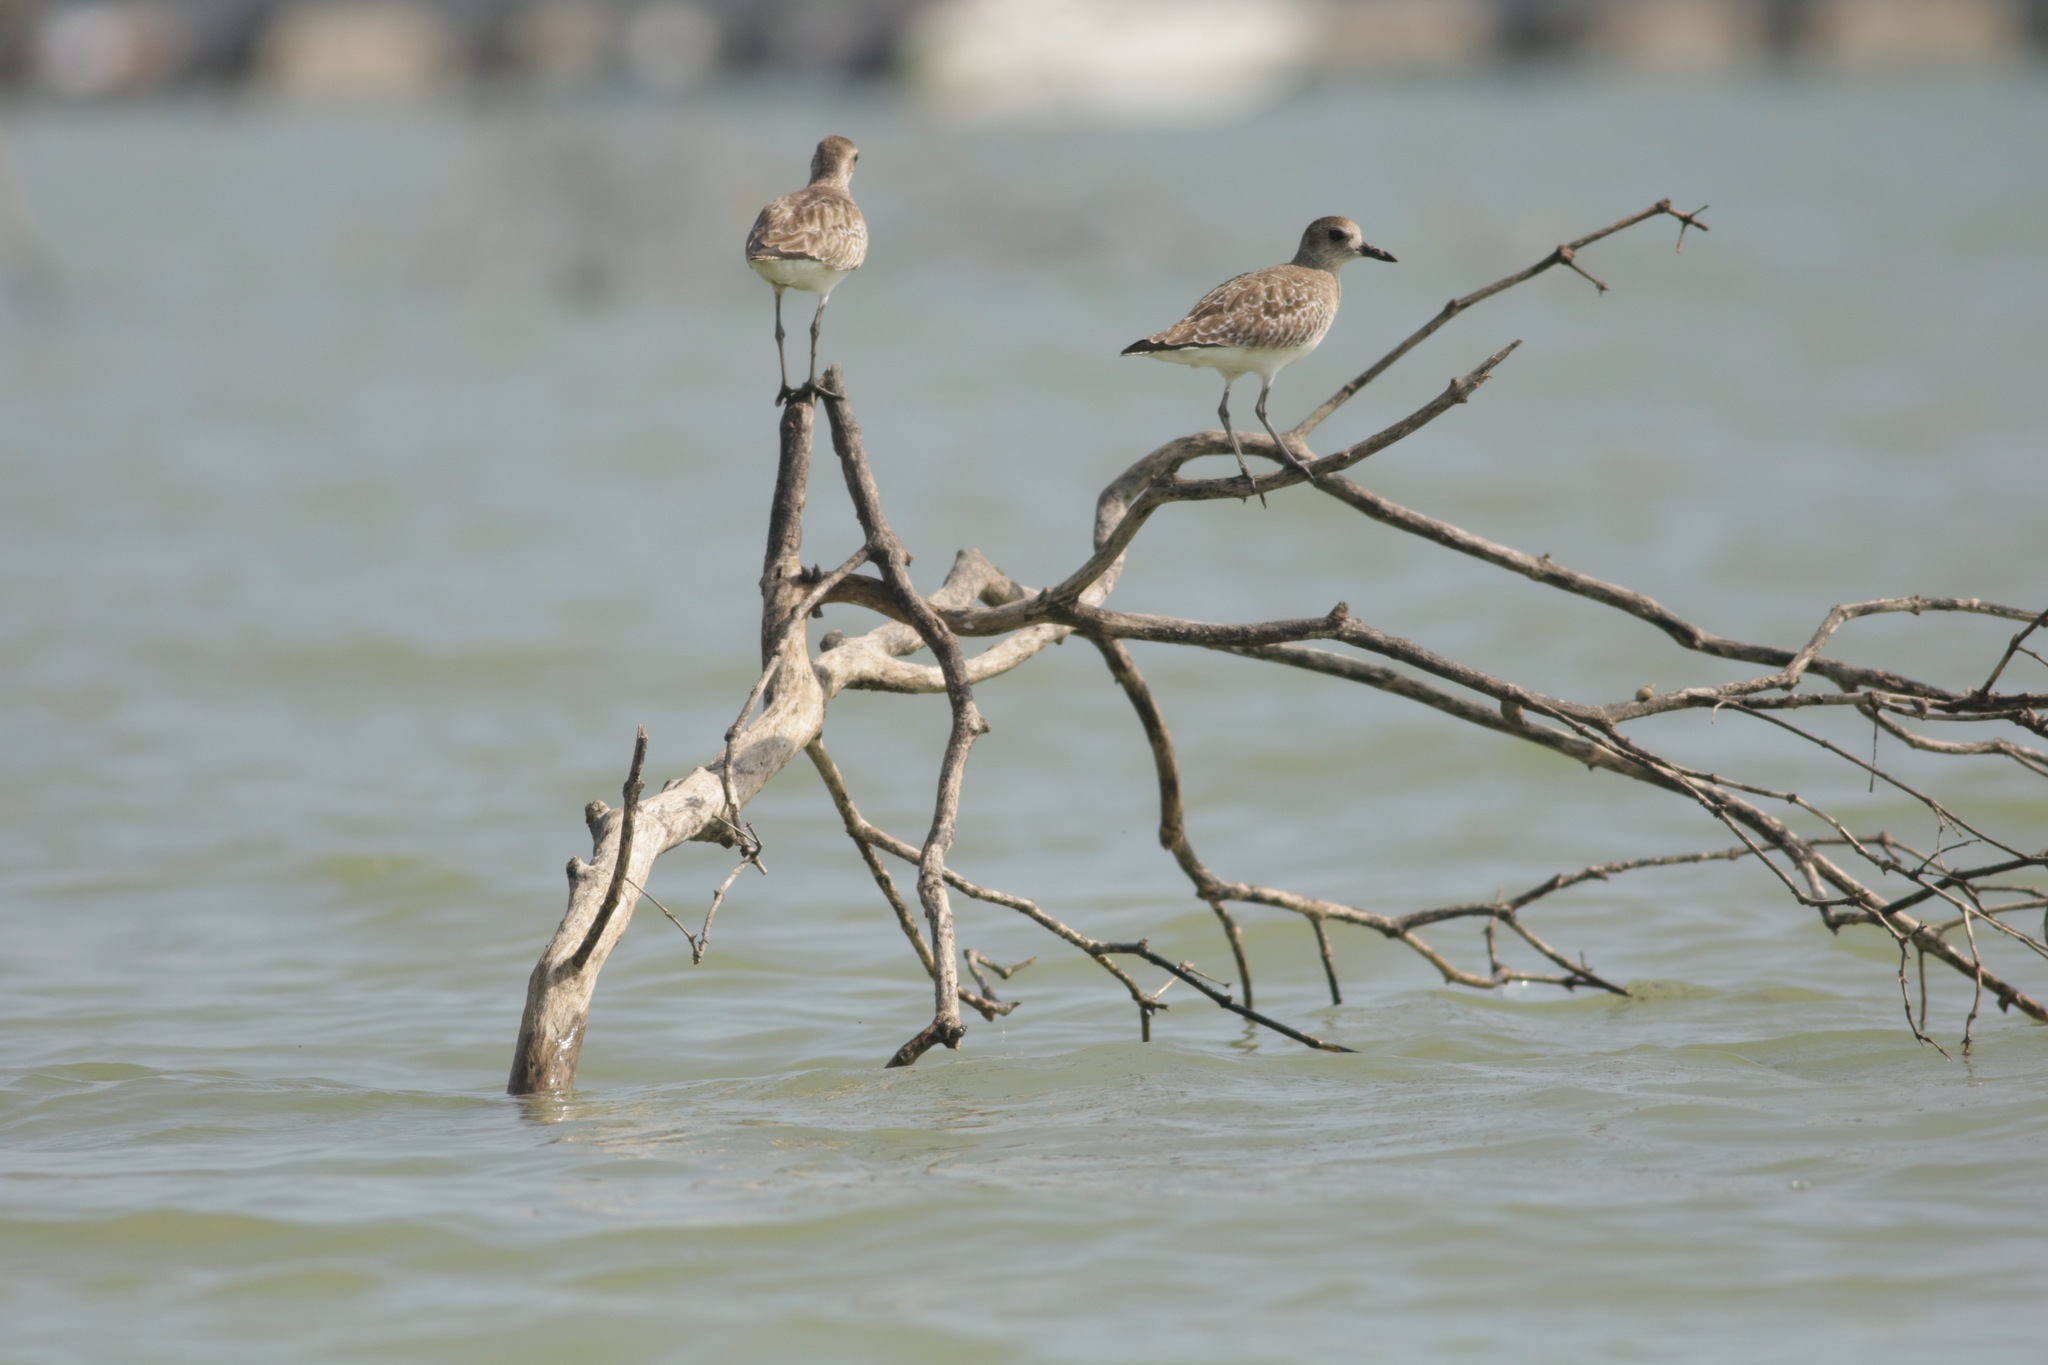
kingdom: Animalia
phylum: Chordata
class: Aves
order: Charadriiformes
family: Charadriidae
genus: Pluvialis
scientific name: Pluvialis squatarola
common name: Grey plover
